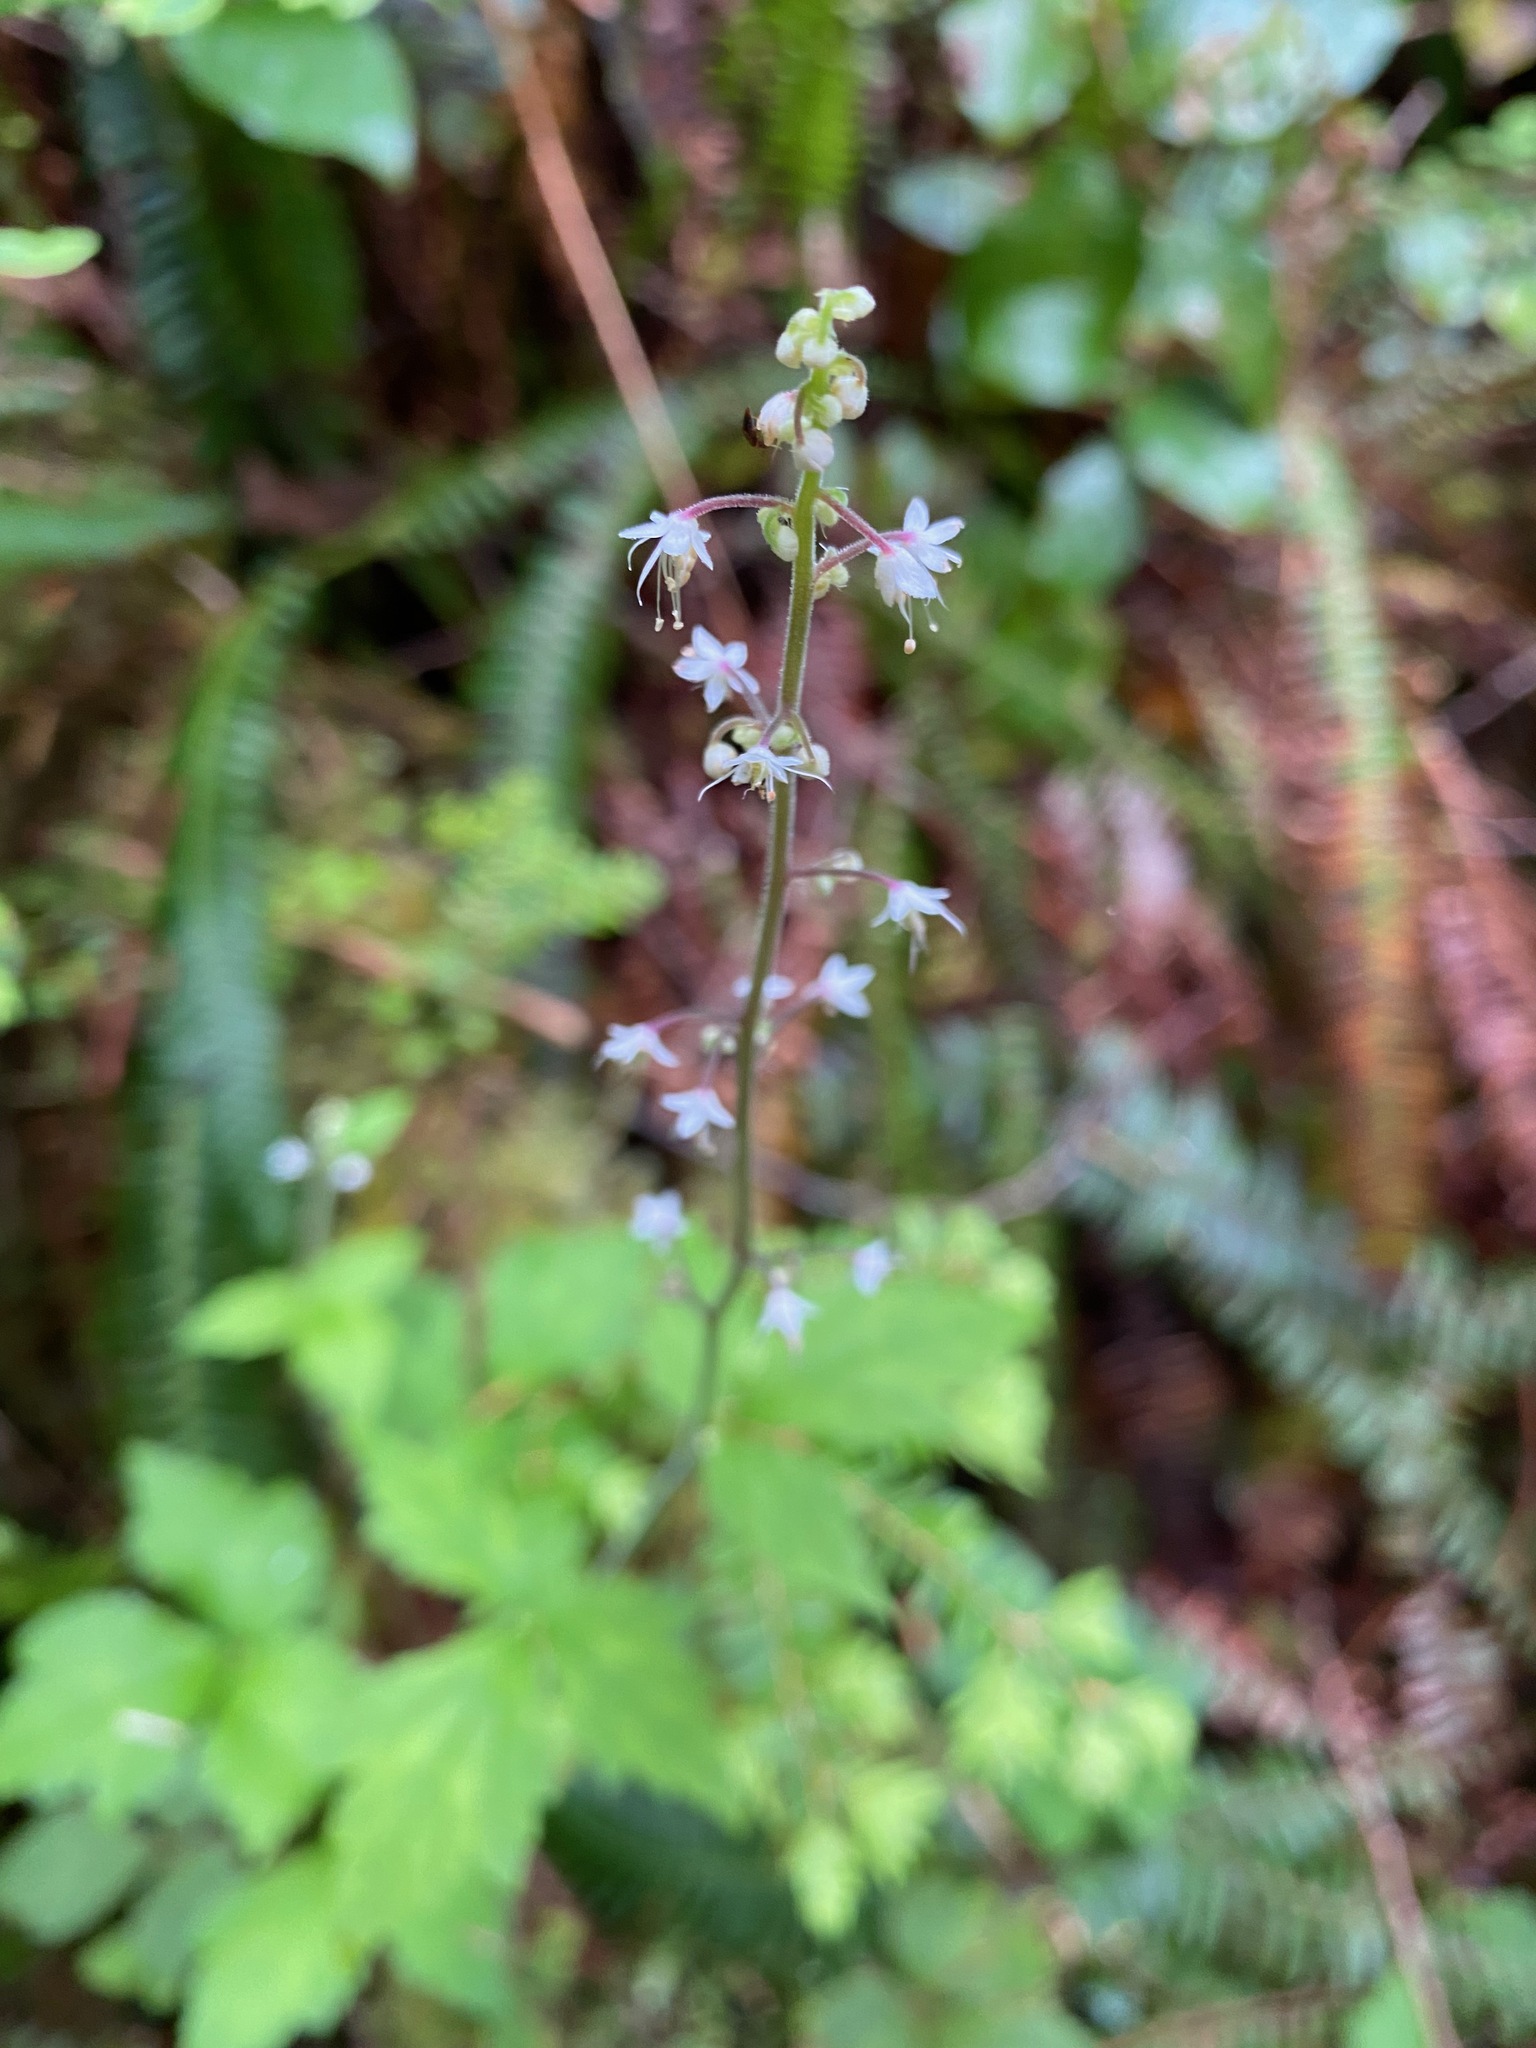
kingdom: Plantae
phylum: Tracheophyta
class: Magnoliopsida
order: Saxifragales
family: Saxifragaceae
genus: Tiarella
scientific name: Tiarella trifoliata
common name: Sugar-scoop
